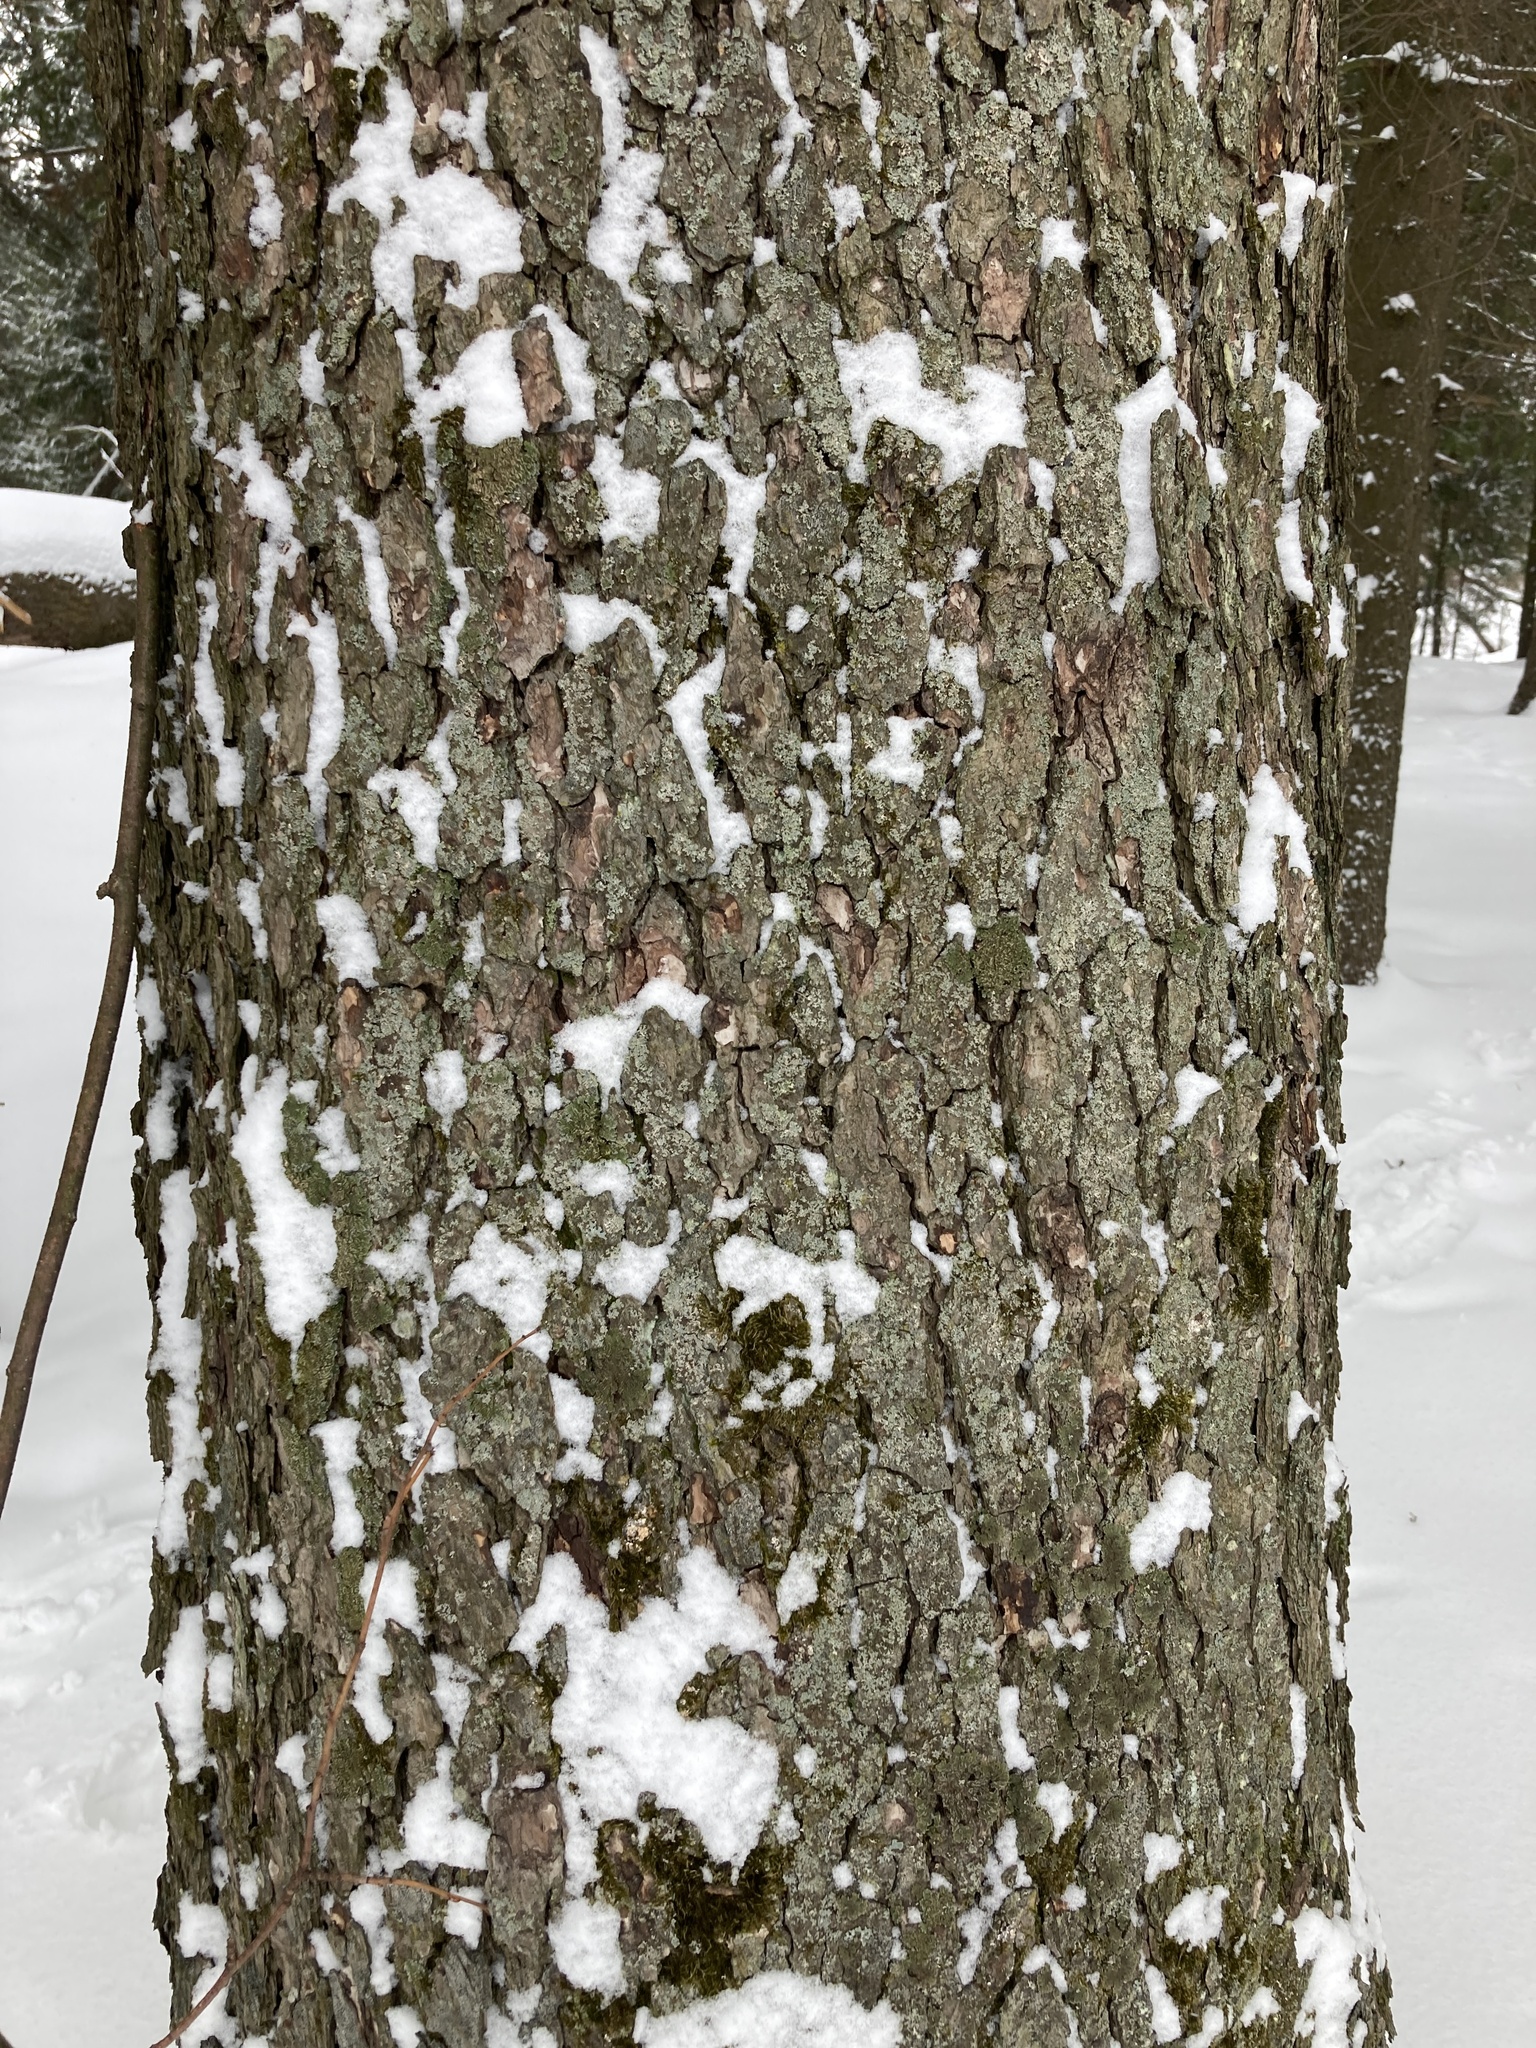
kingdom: Plantae
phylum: Tracheophyta
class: Magnoliopsida
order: Fagales
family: Betulaceae
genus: Alnus
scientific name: Alnus glutinosa
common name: Black alder
